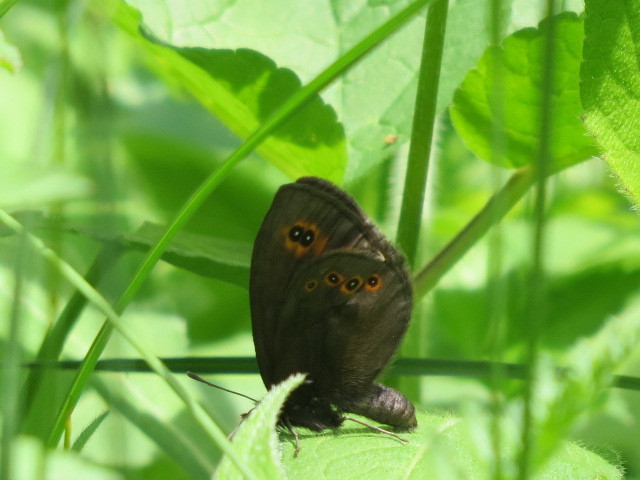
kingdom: Animalia
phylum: Arthropoda
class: Insecta
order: Lepidoptera
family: Nymphalidae
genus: Erebia
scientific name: Erebia medusa
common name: Woodland ringlet
